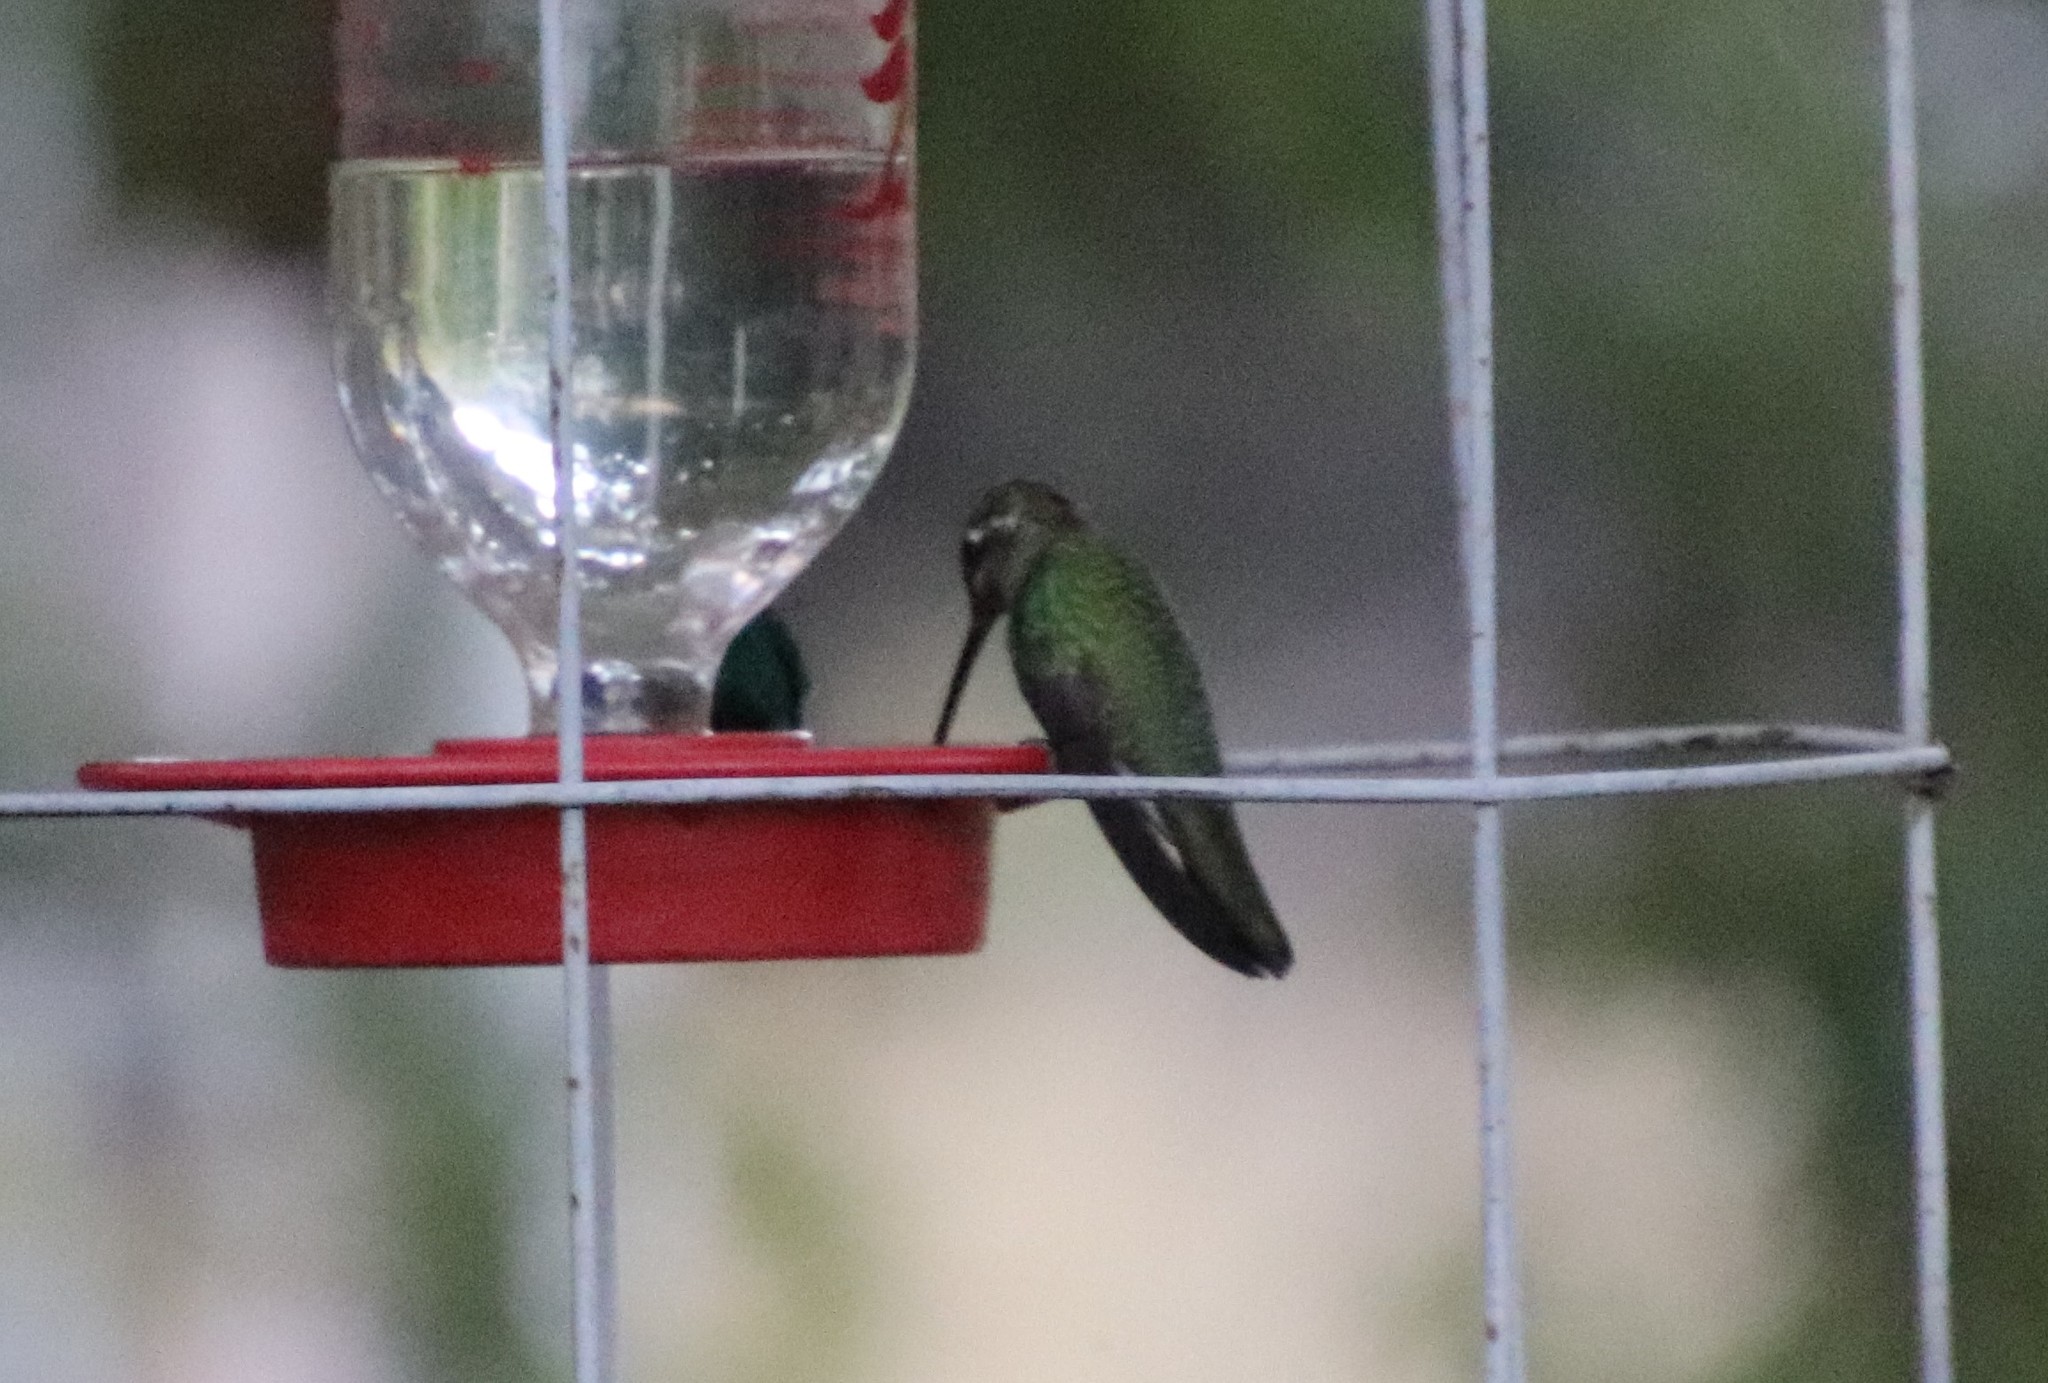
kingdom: Animalia
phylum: Chordata
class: Aves
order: Apodiformes
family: Trochilidae
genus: Eugenes
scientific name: Eugenes fulgens
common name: Magnificent hummingbird
